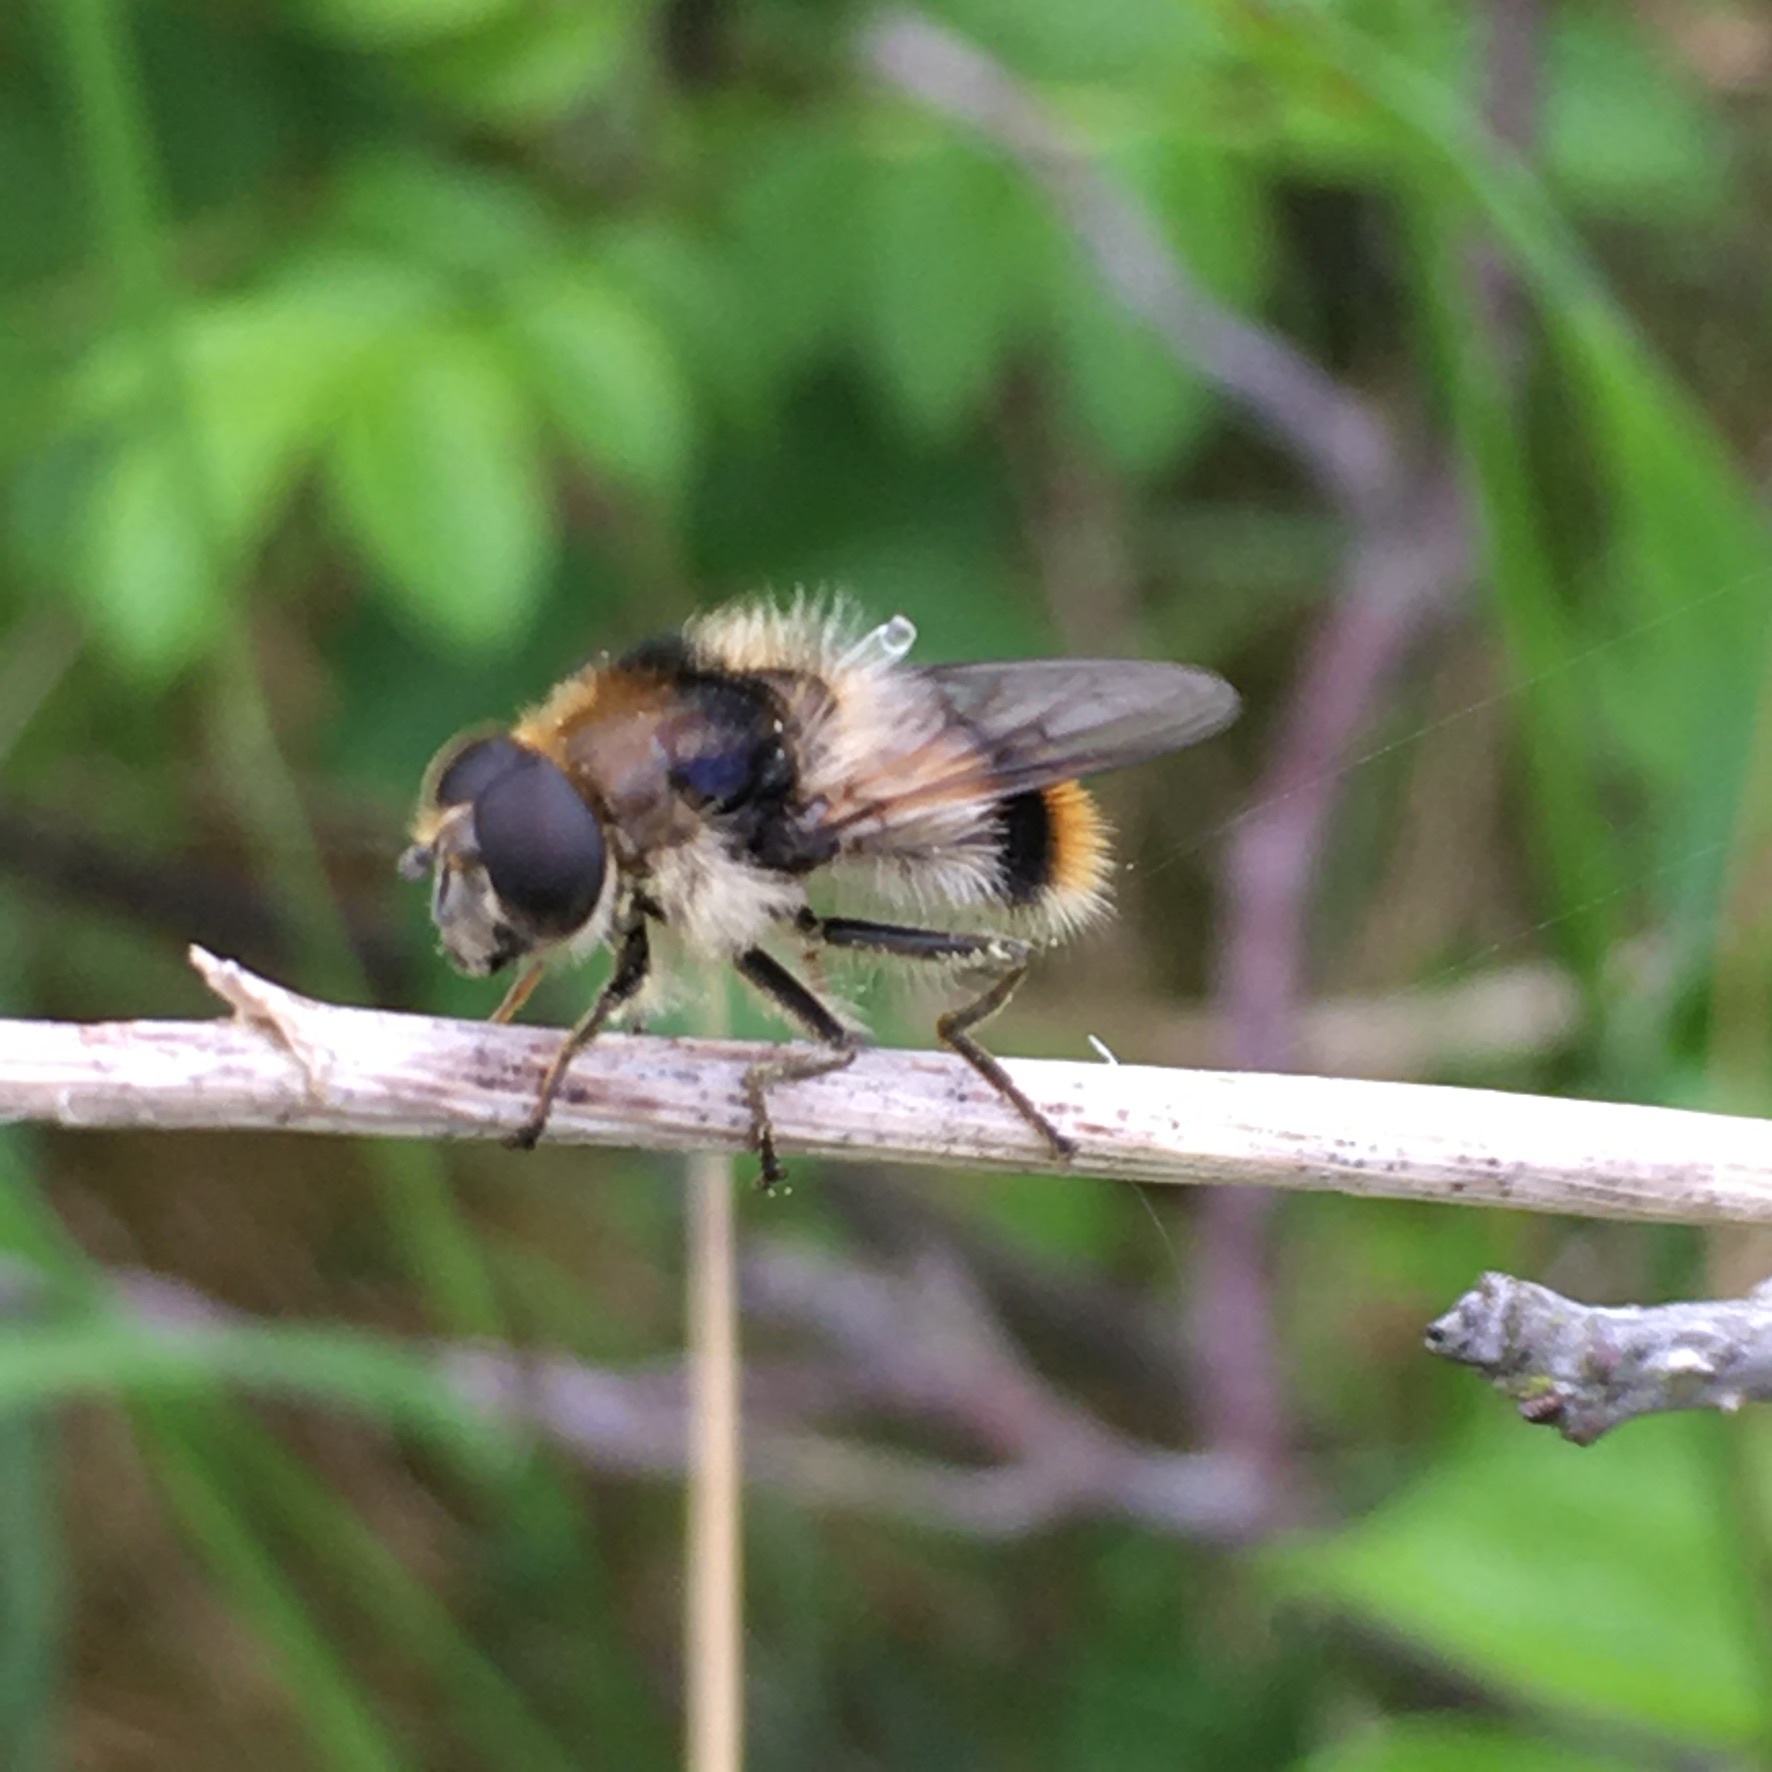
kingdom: Animalia
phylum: Arthropoda
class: Insecta
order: Diptera
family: Syrphidae
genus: Cheilosia
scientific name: Cheilosia illustrata
